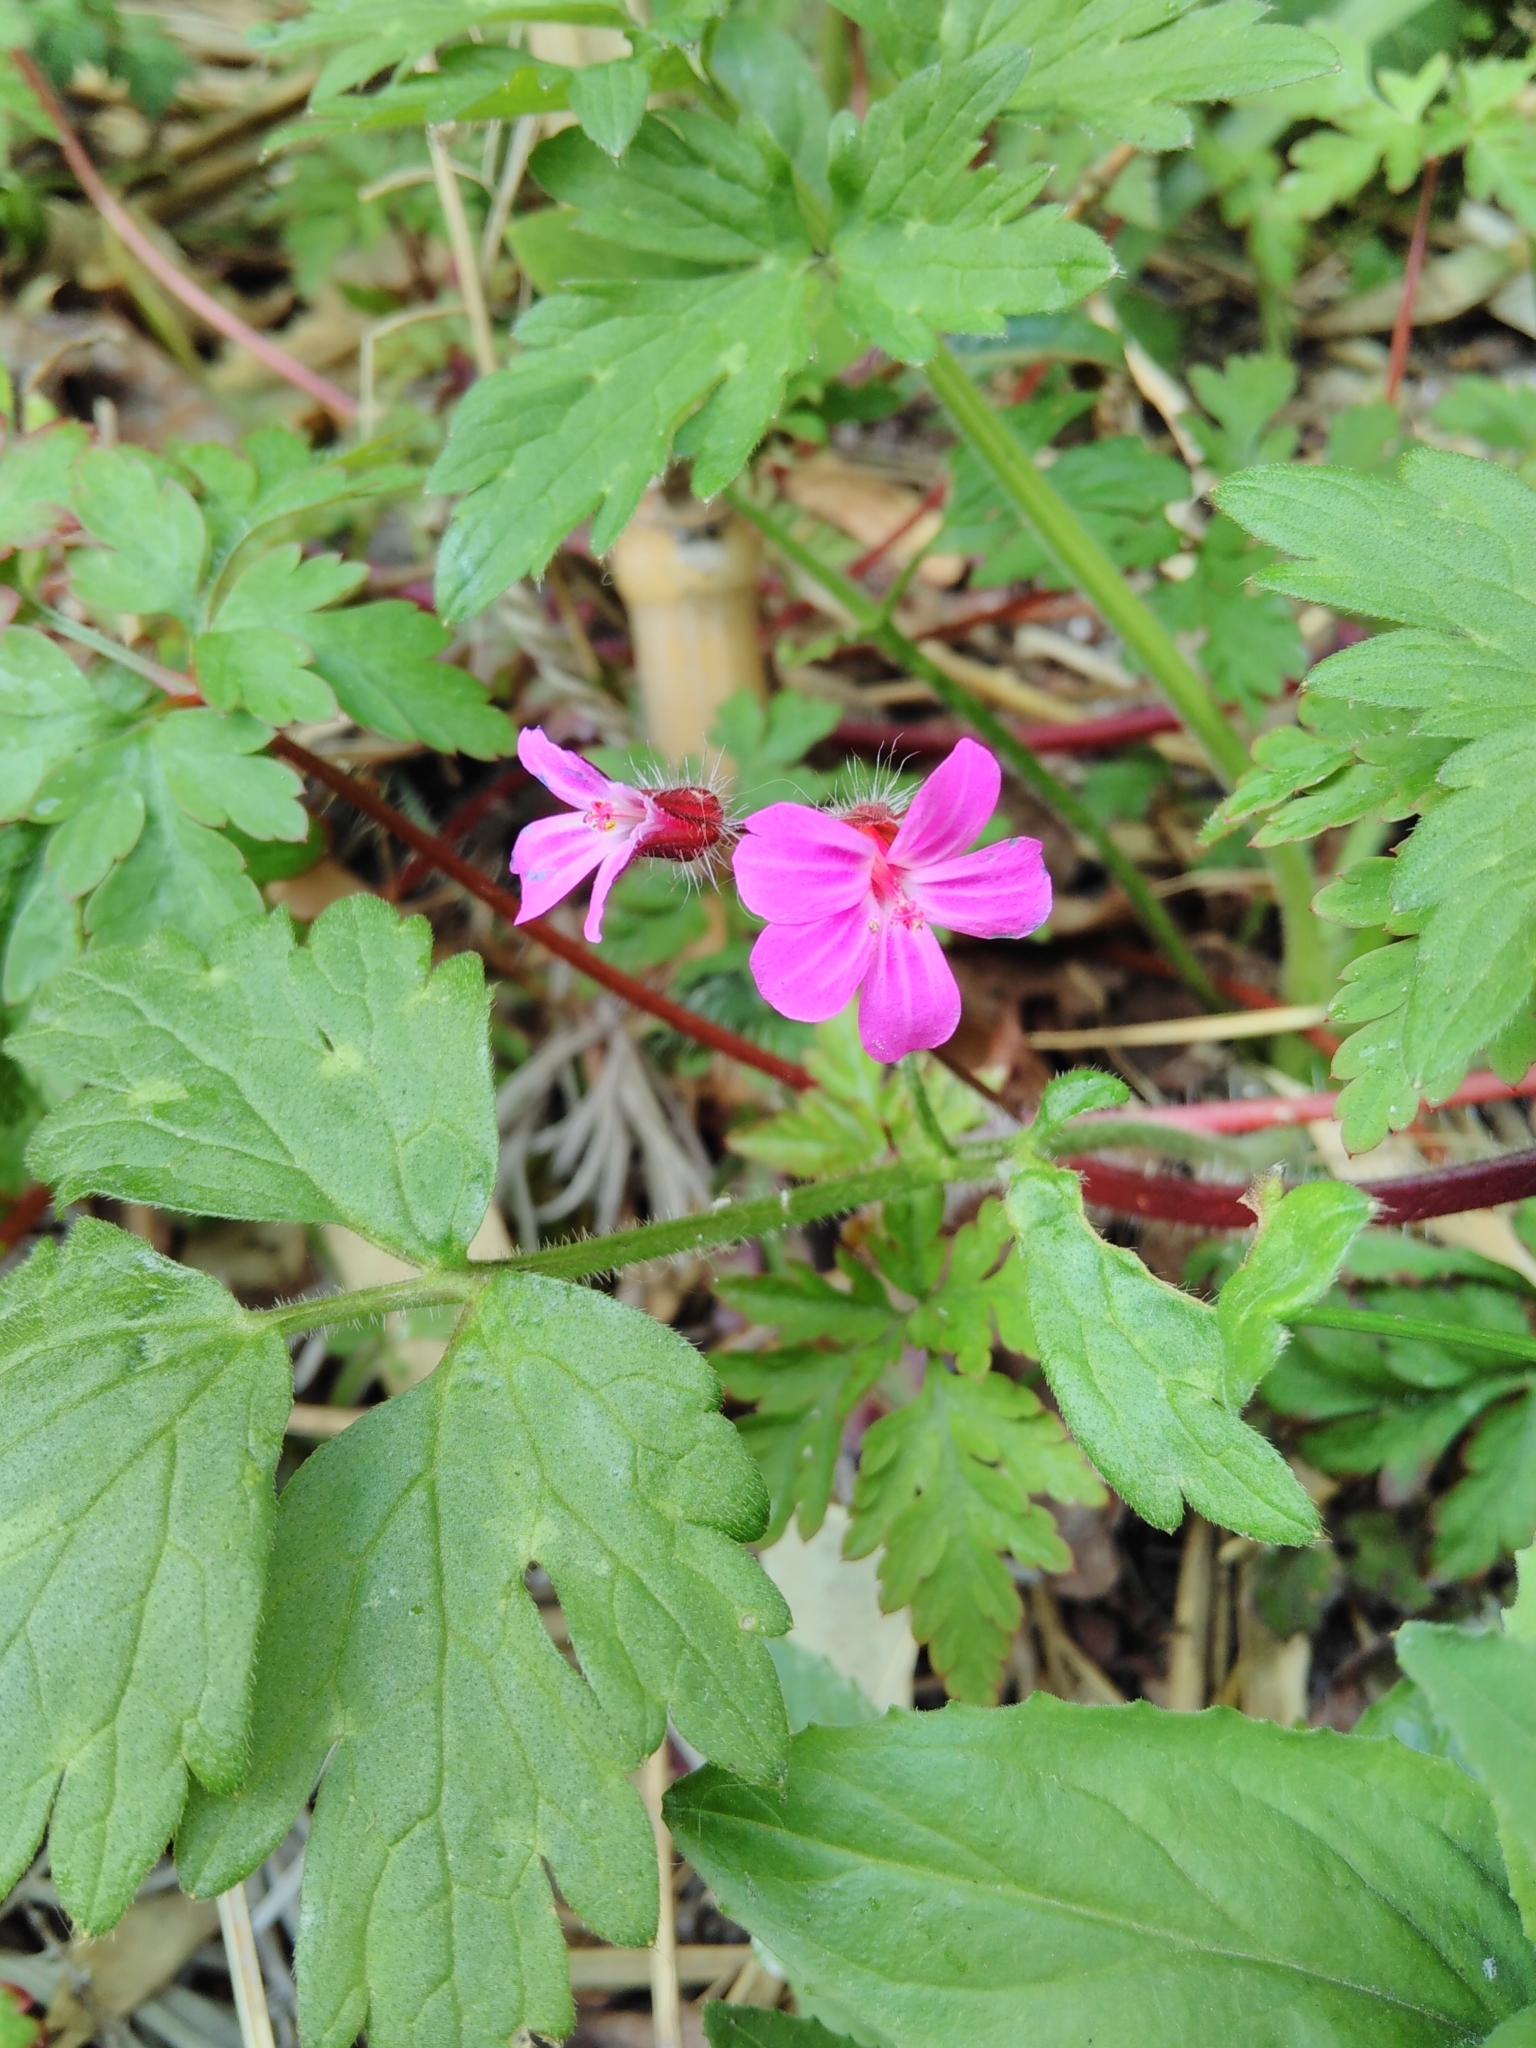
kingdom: Plantae
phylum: Tracheophyta
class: Magnoliopsida
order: Geraniales
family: Geraniaceae
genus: Geranium
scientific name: Geranium robertianum
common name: Herb-robert
